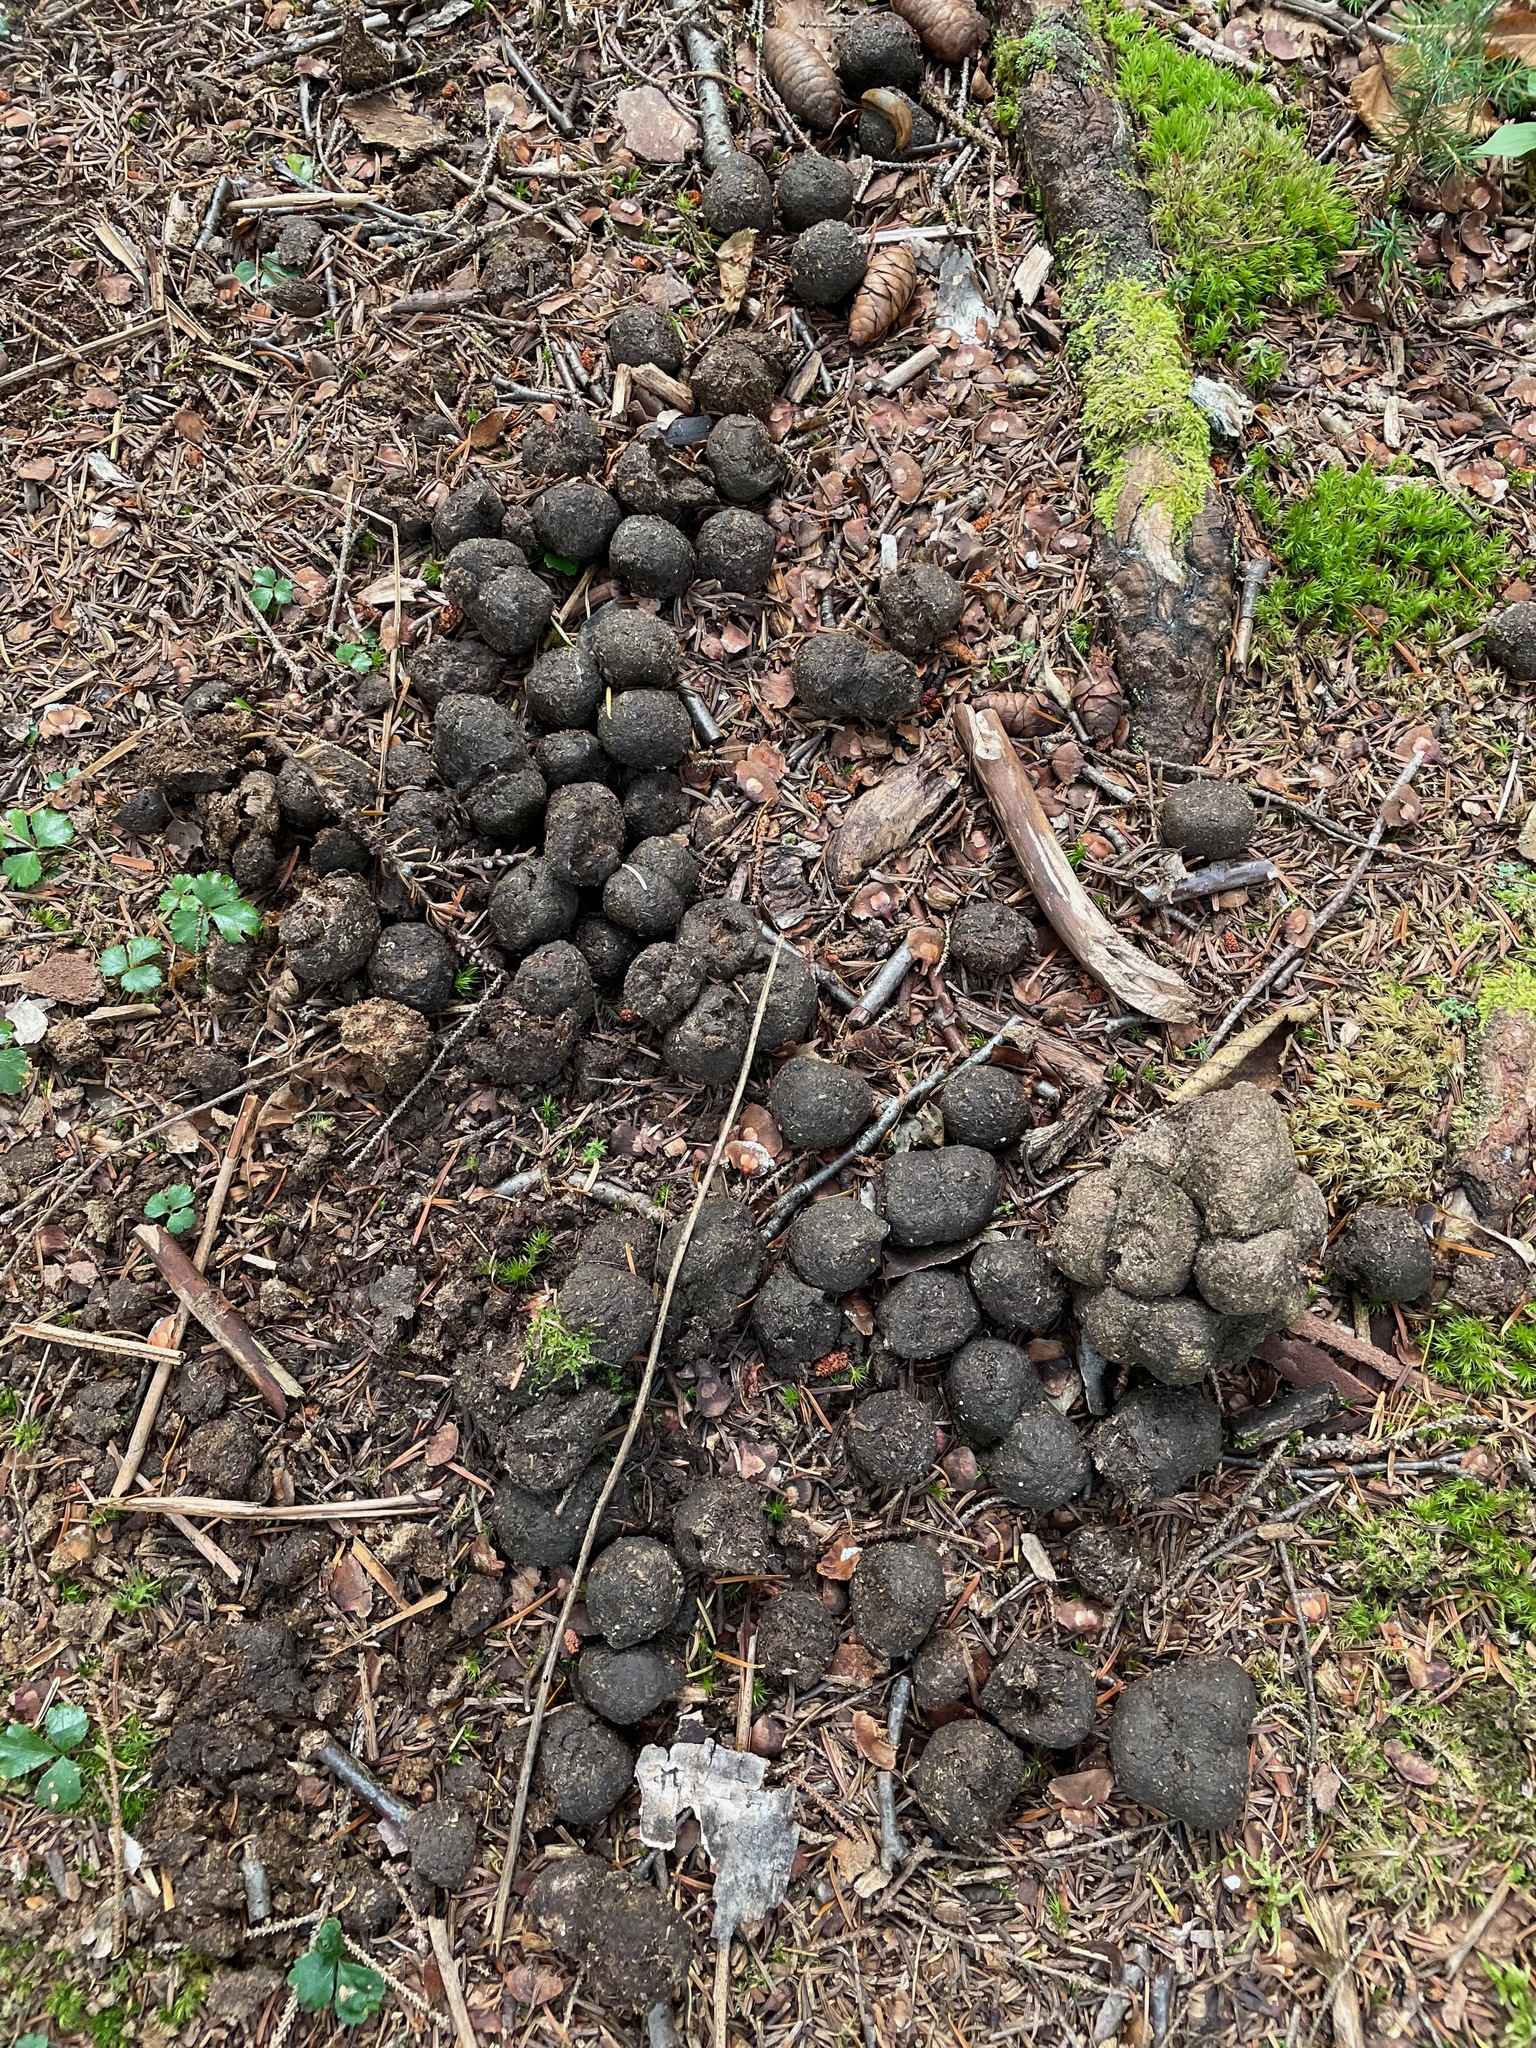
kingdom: Animalia
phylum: Chordata
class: Mammalia
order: Artiodactyla
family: Cervidae
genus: Alces
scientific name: Alces alces
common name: Moose
